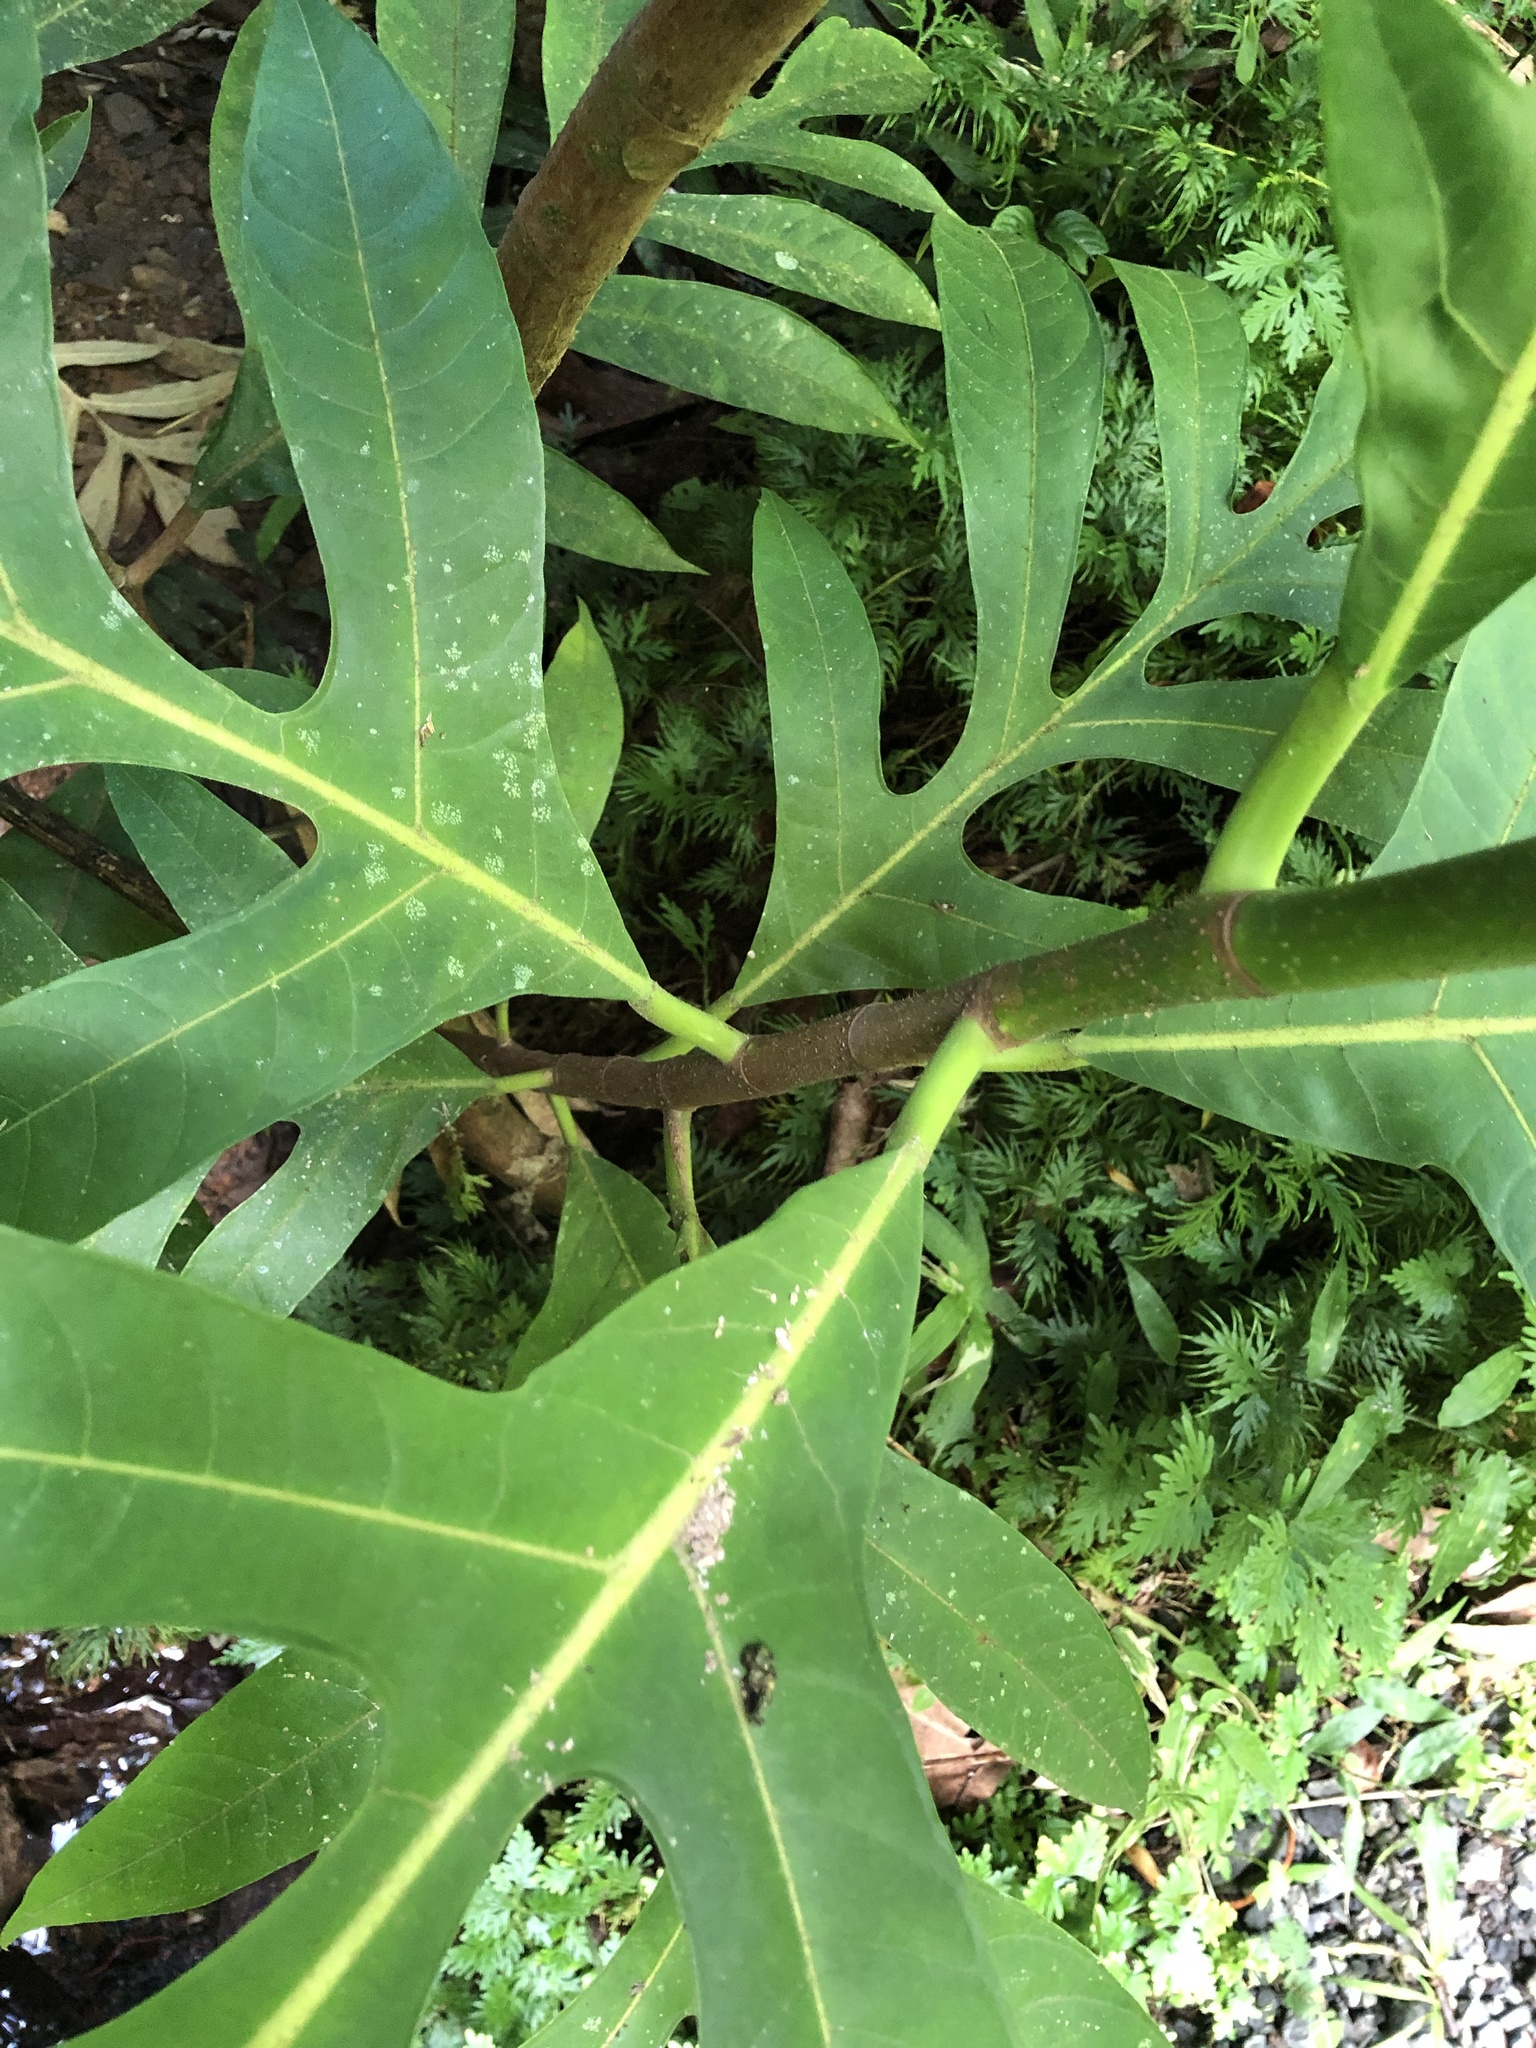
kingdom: Plantae
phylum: Tracheophyta
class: Magnoliopsida
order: Rosales
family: Moraceae
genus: Artocarpus
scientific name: Artocarpus altilis
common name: Breadfruit
